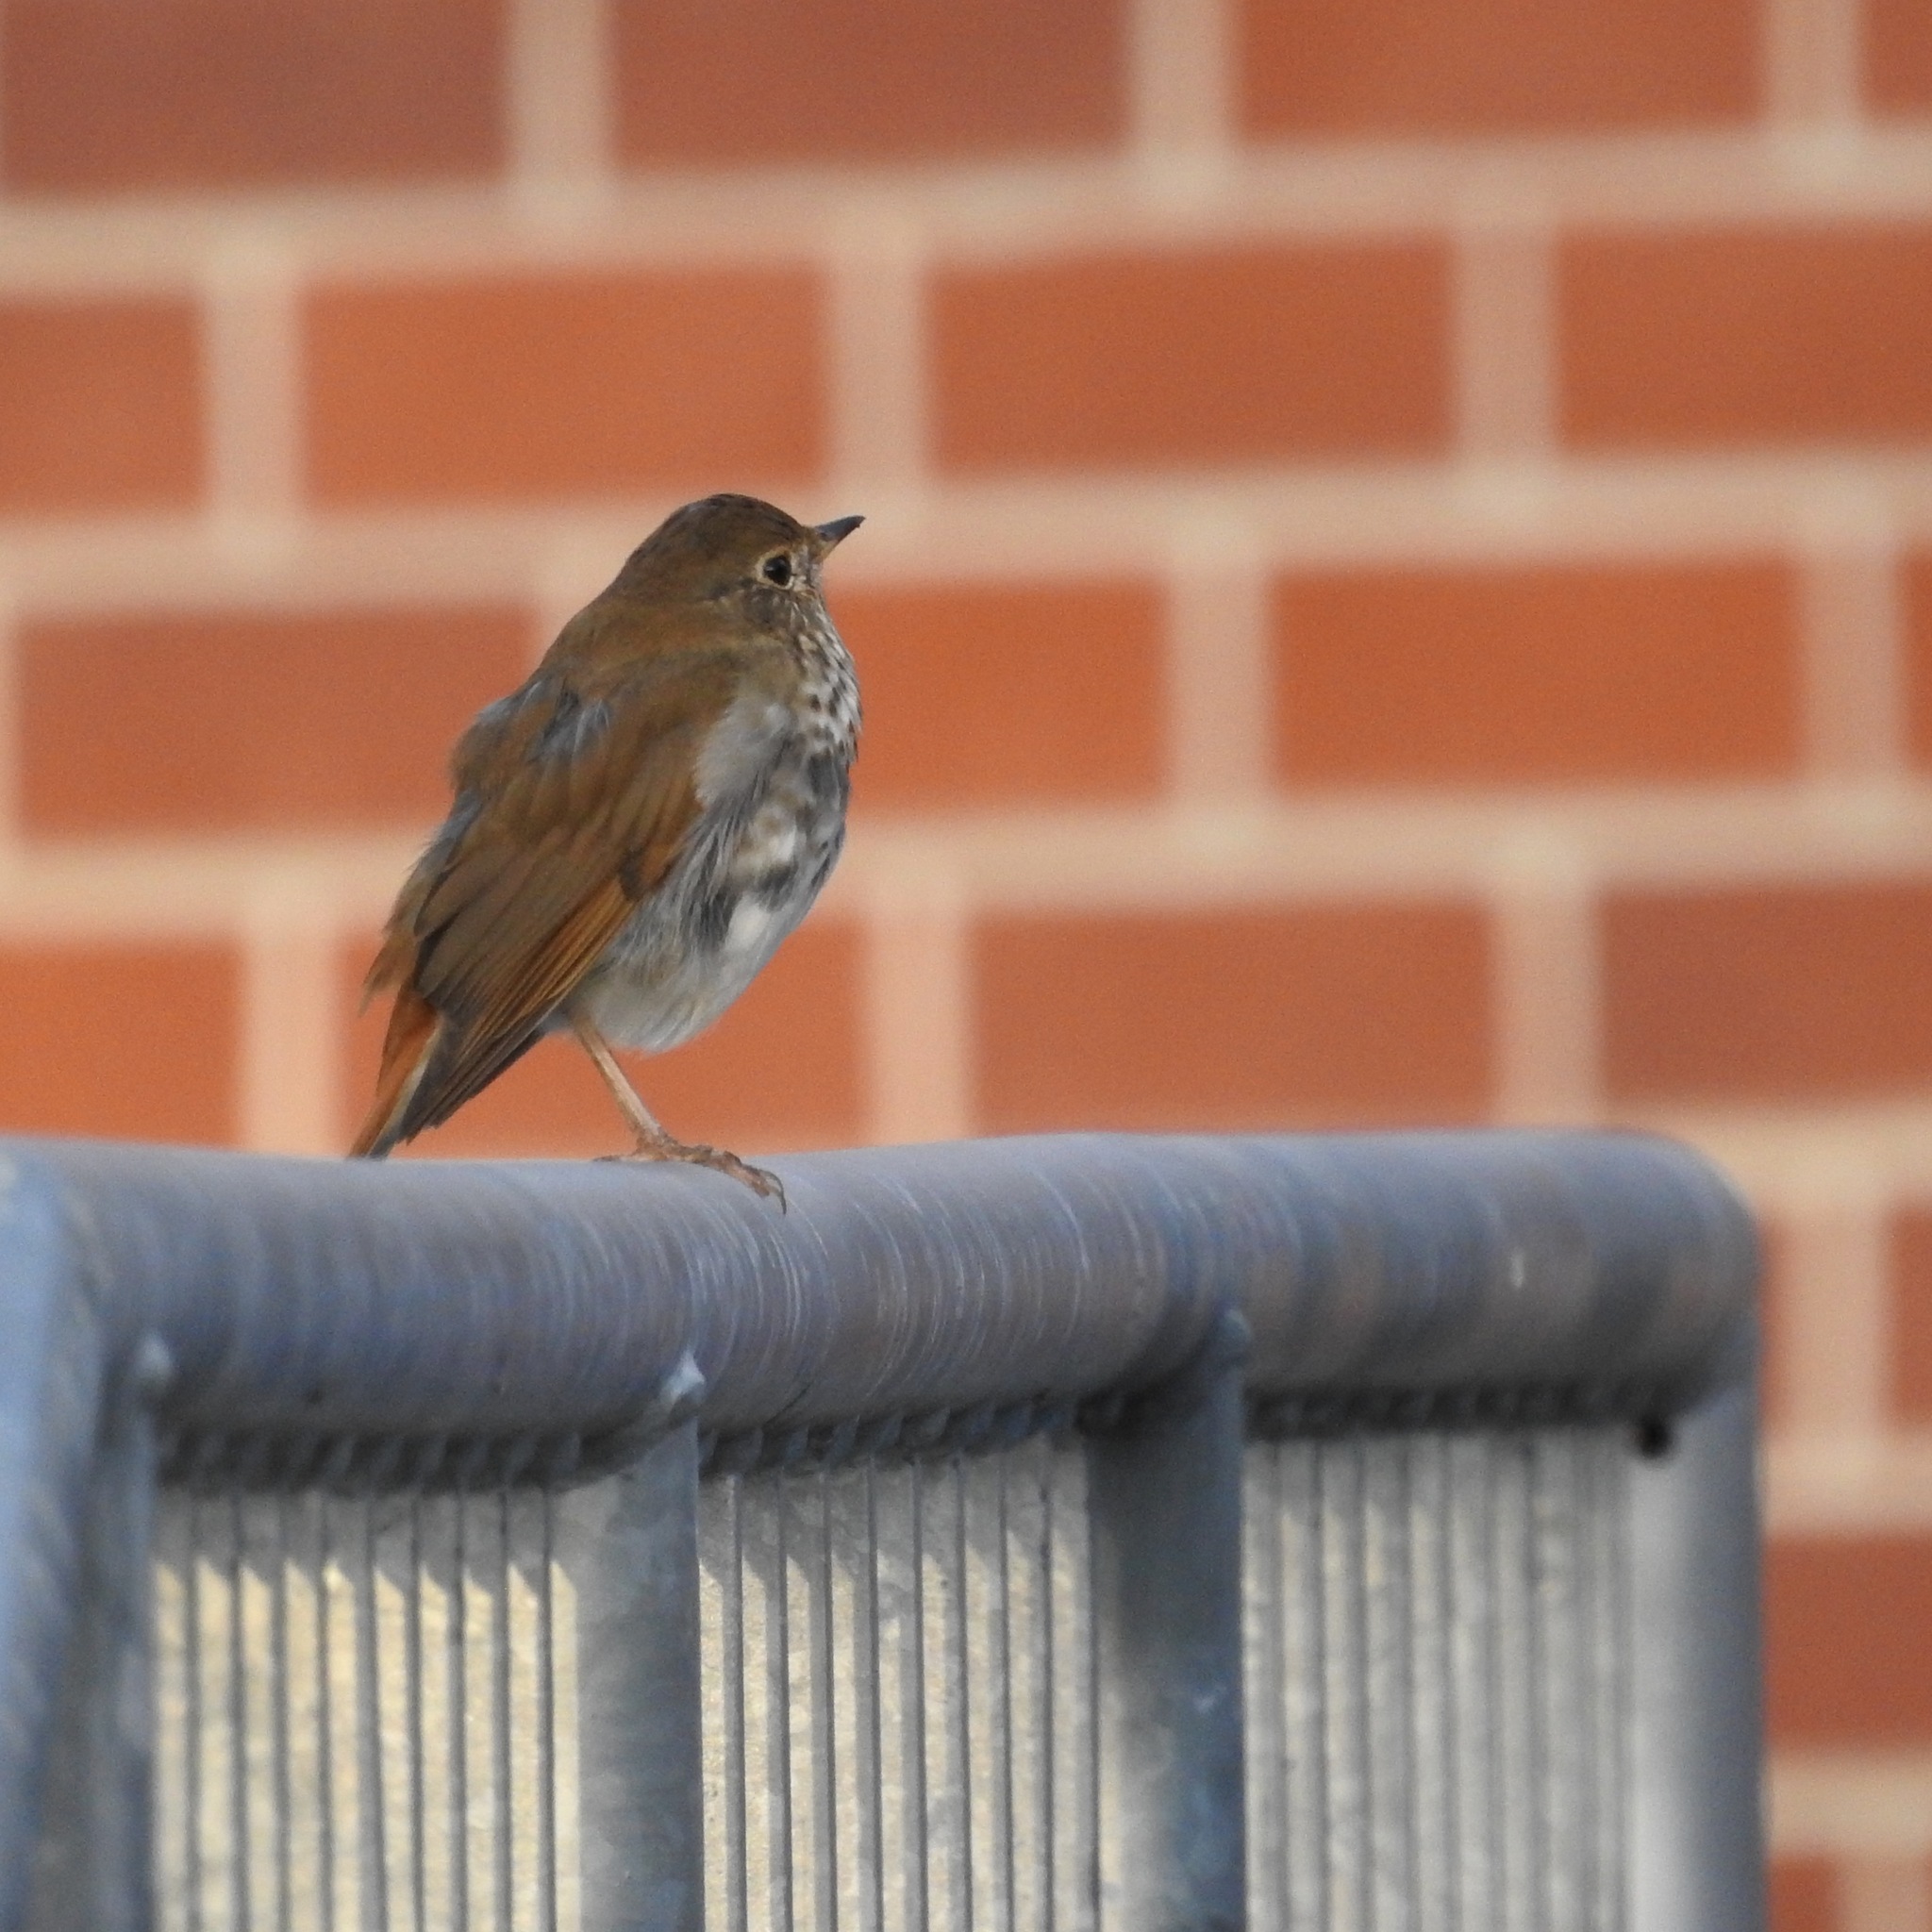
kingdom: Animalia
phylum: Chordata
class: Aves
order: Passeriformes
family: Turdidae
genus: Catharus
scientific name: Catharus guttatus
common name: Hermit thrush
